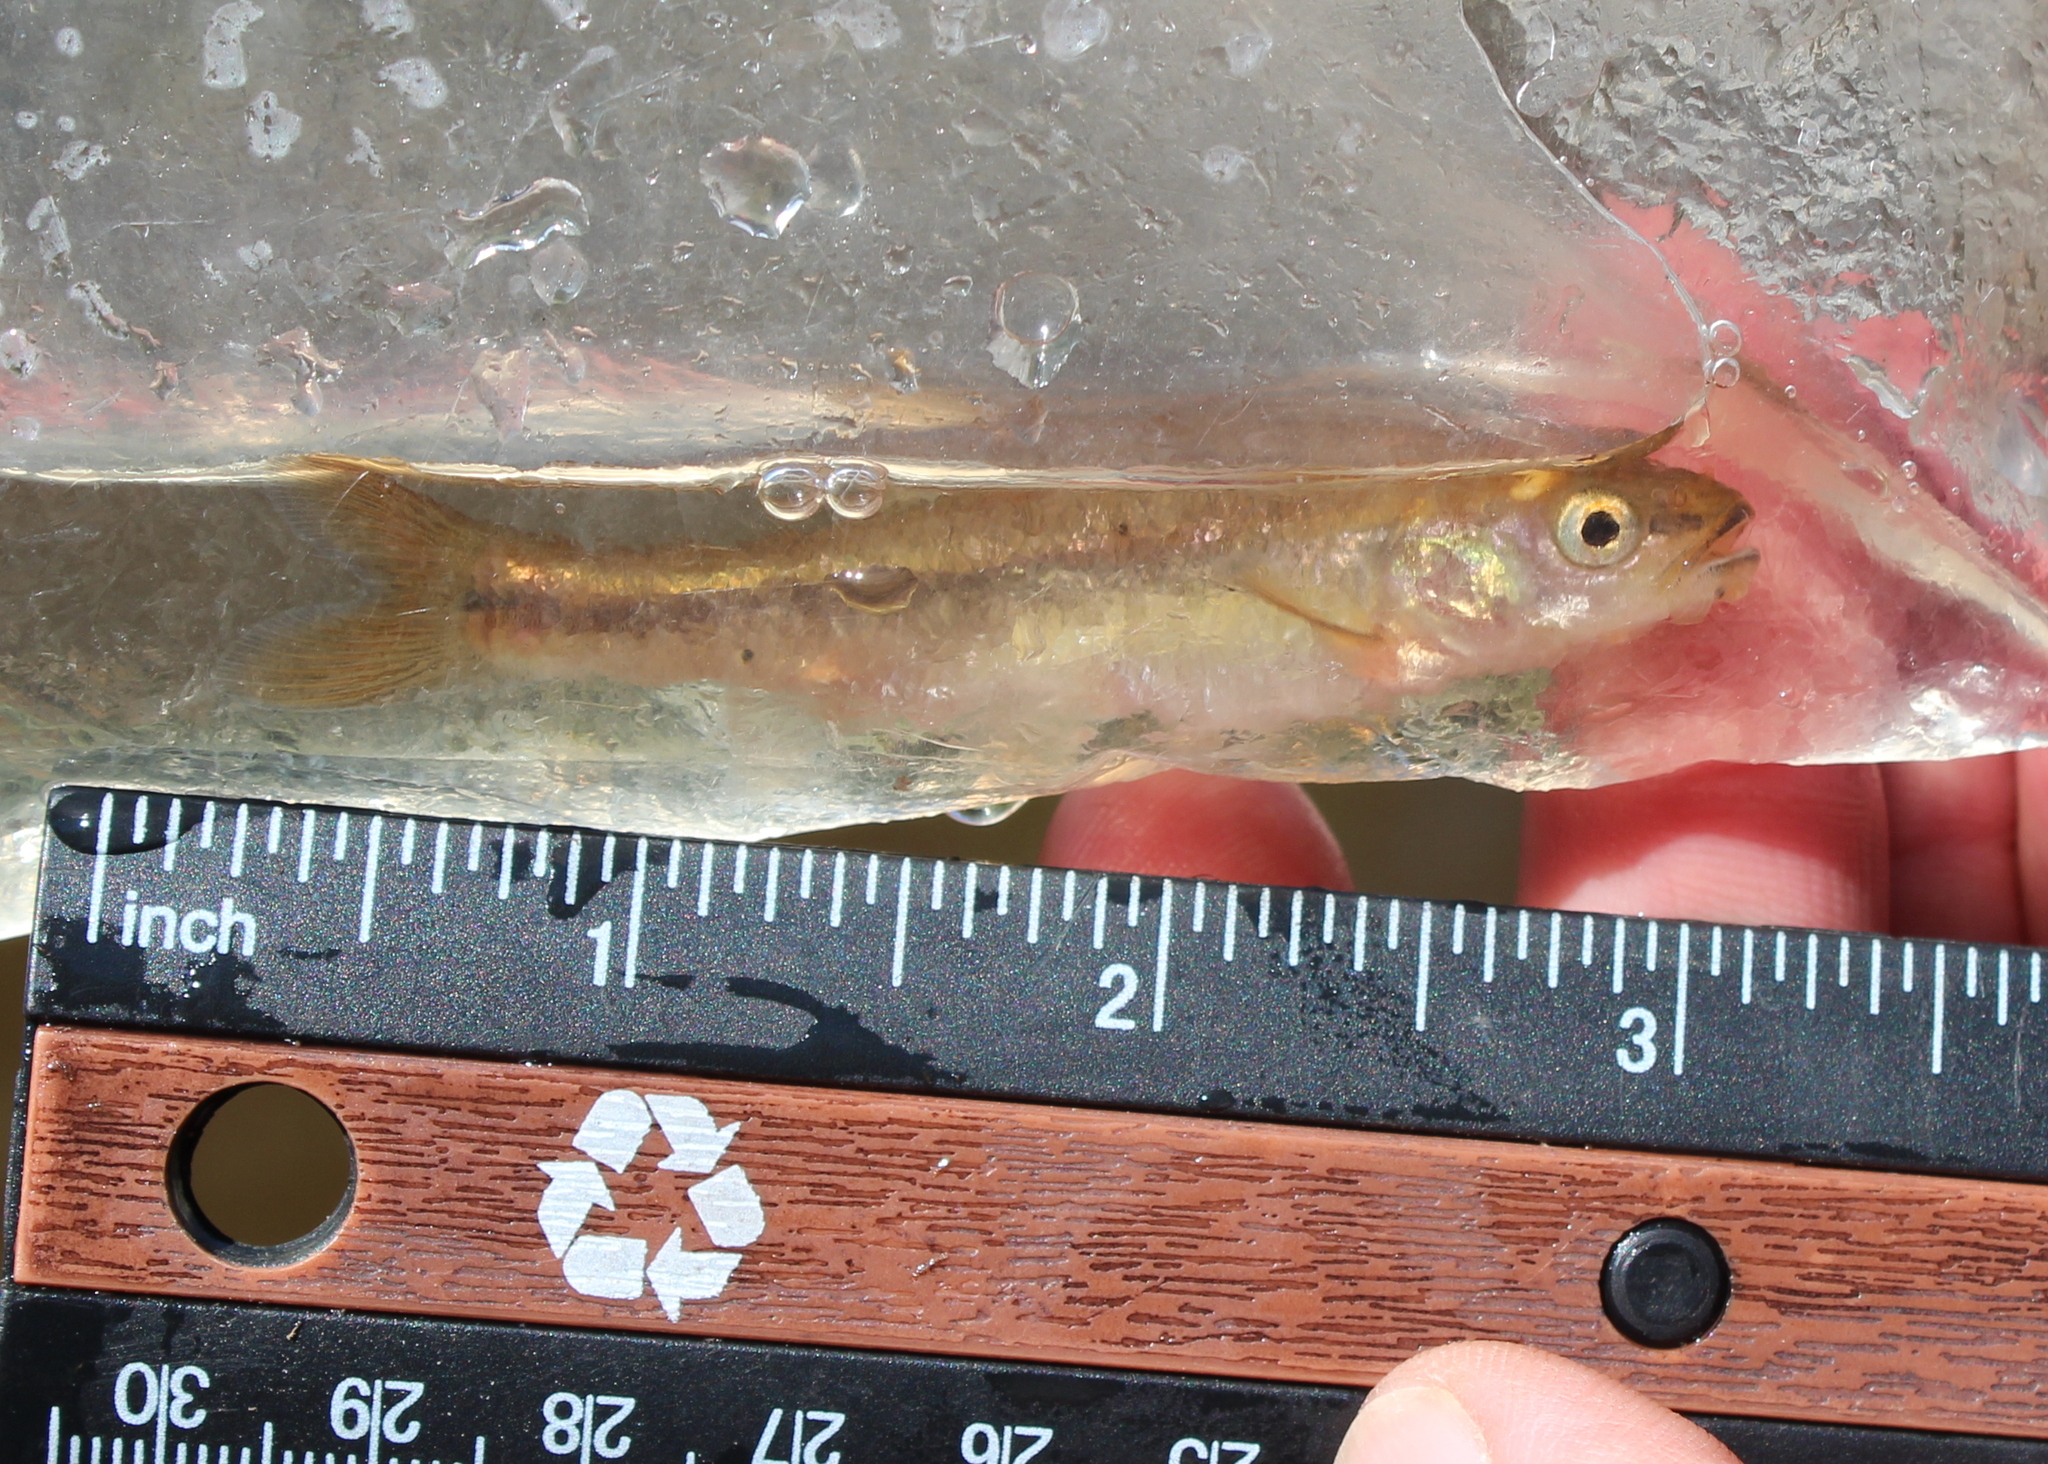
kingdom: Animalia
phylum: Chordata
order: Cypriniformes
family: Cyprinidae
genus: Semotilus
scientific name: Semotilus atromaculatus
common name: Creek chub
